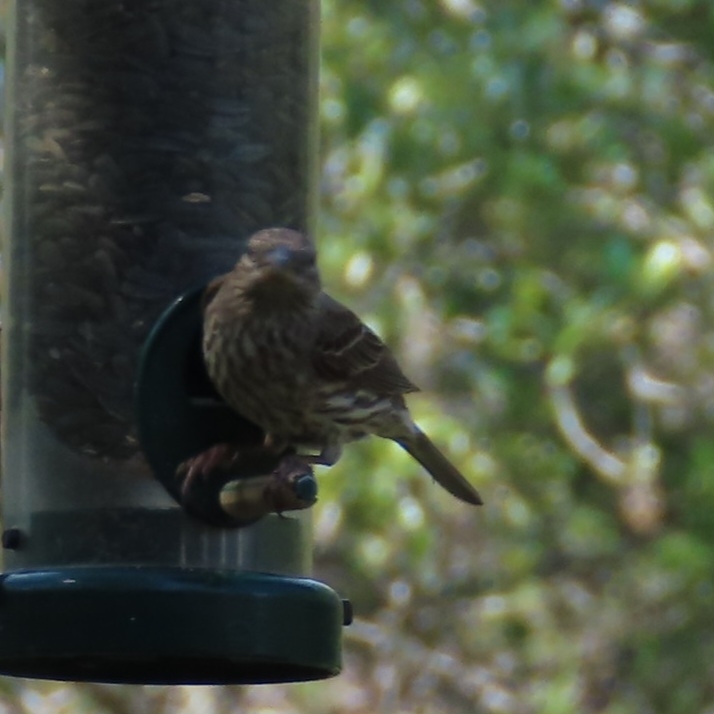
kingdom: Animalia
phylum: Chordata
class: Aves
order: Passeriformes
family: Fringillidae
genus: Haemorhous
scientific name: Haemorhous mexicanus
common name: House finch
